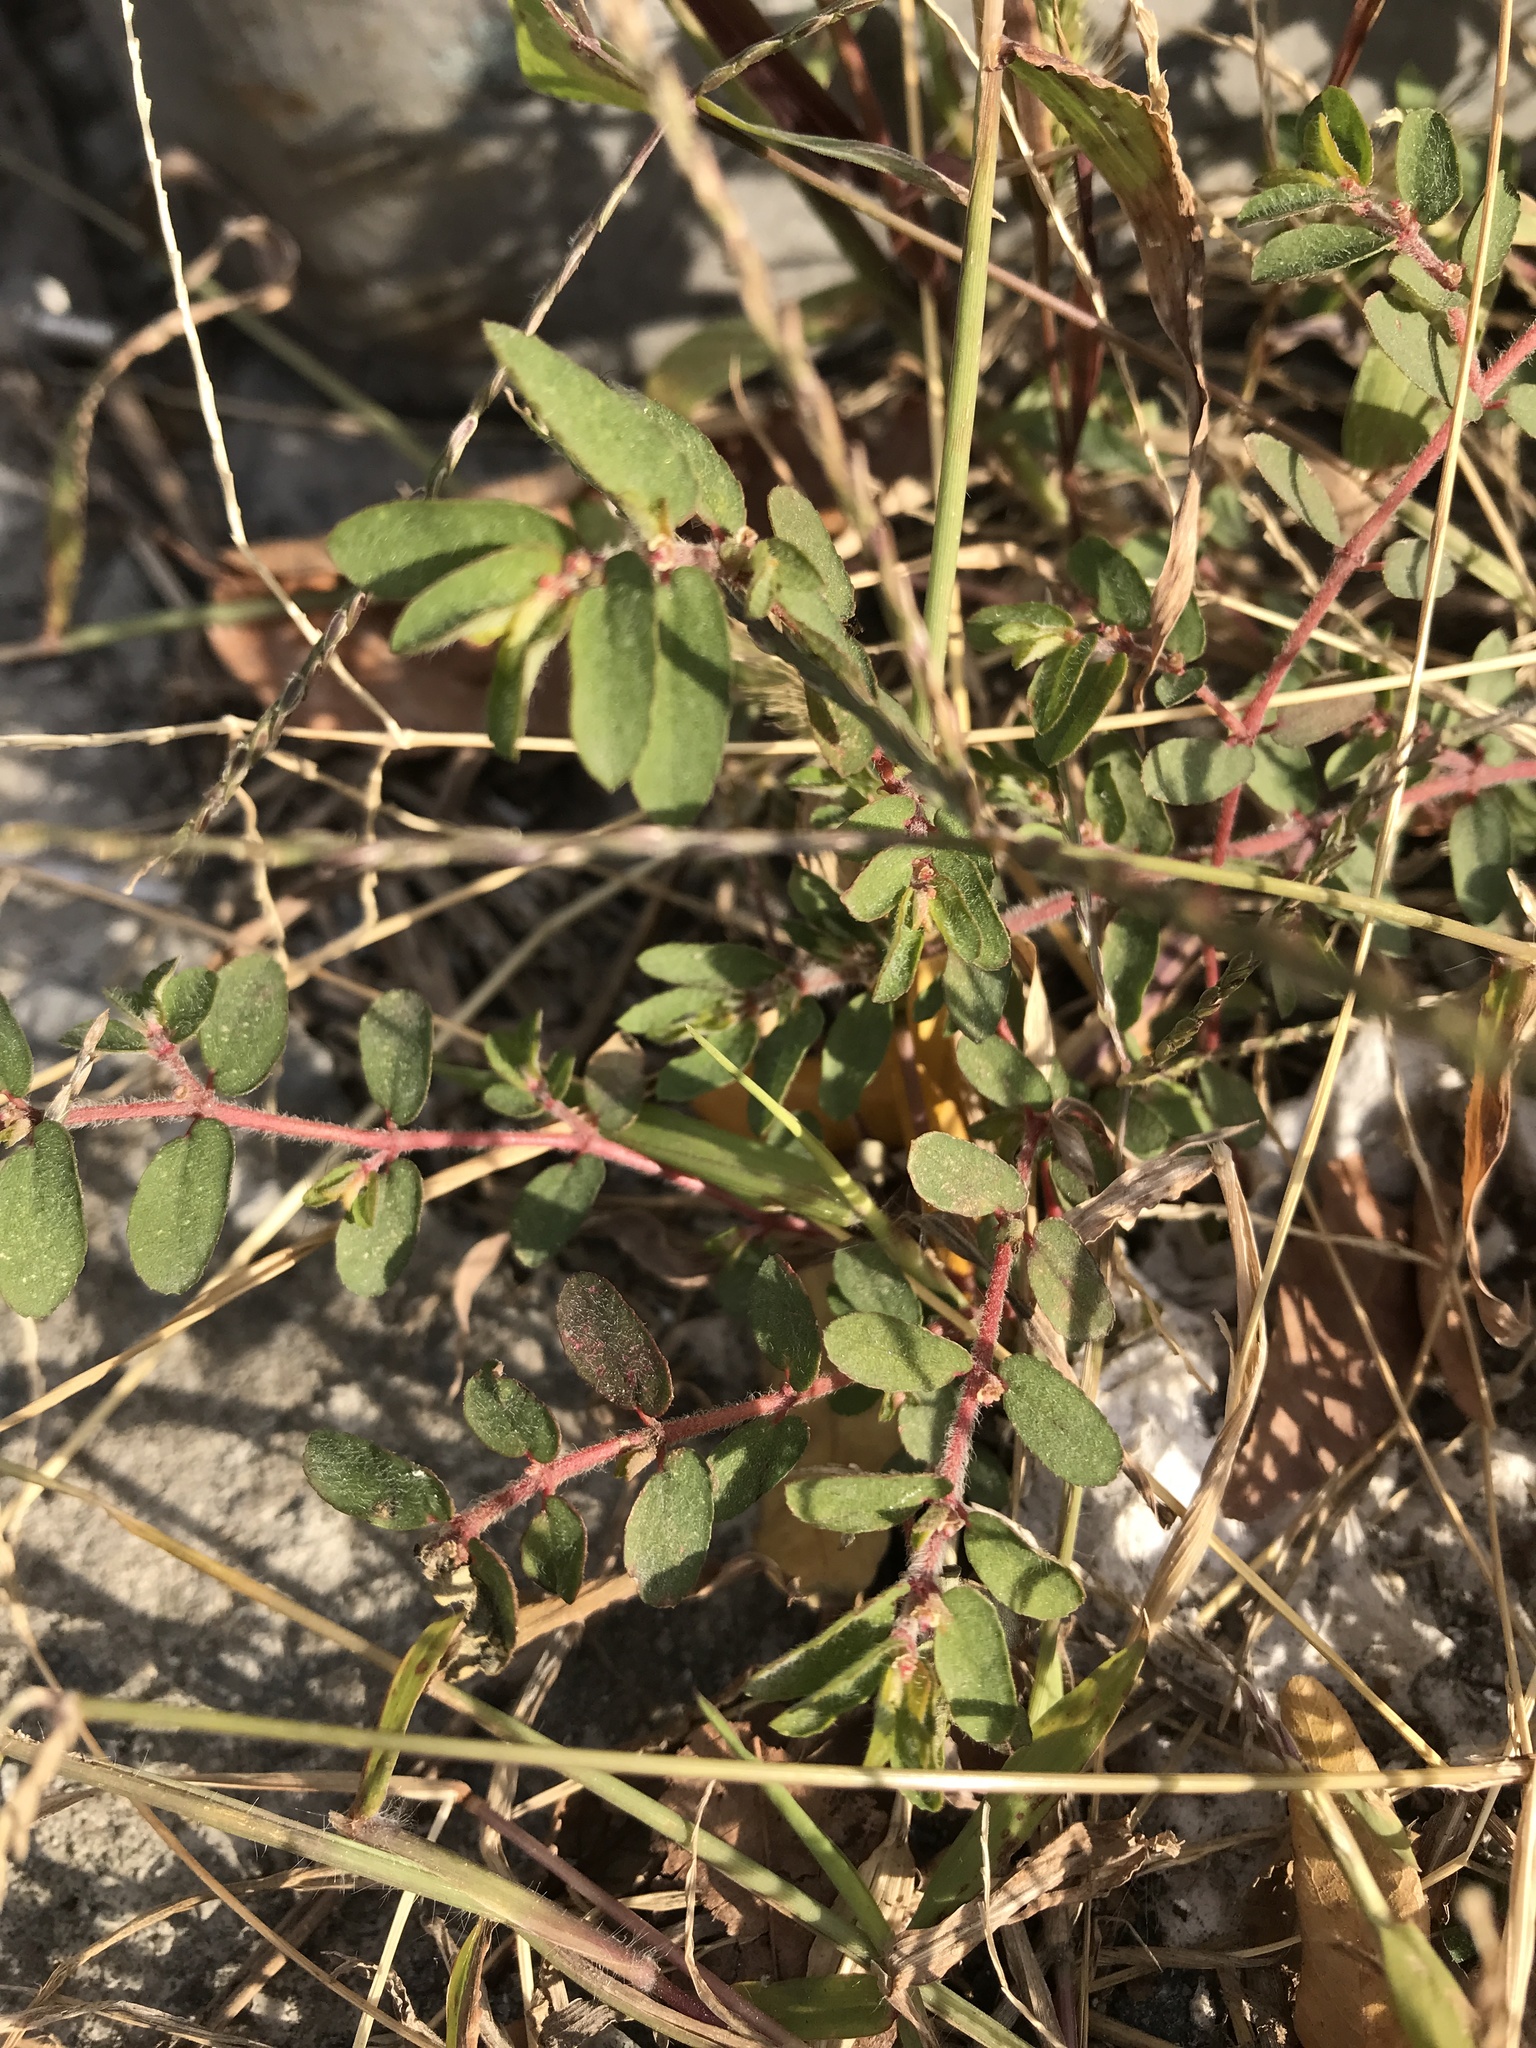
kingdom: Plantae
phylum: Tracheophyta
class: Magnoliopsida
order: Malpighiales
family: Euphorbiaceae
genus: Euphorbia
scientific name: Euphorbia maculata
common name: Spotted spurge
